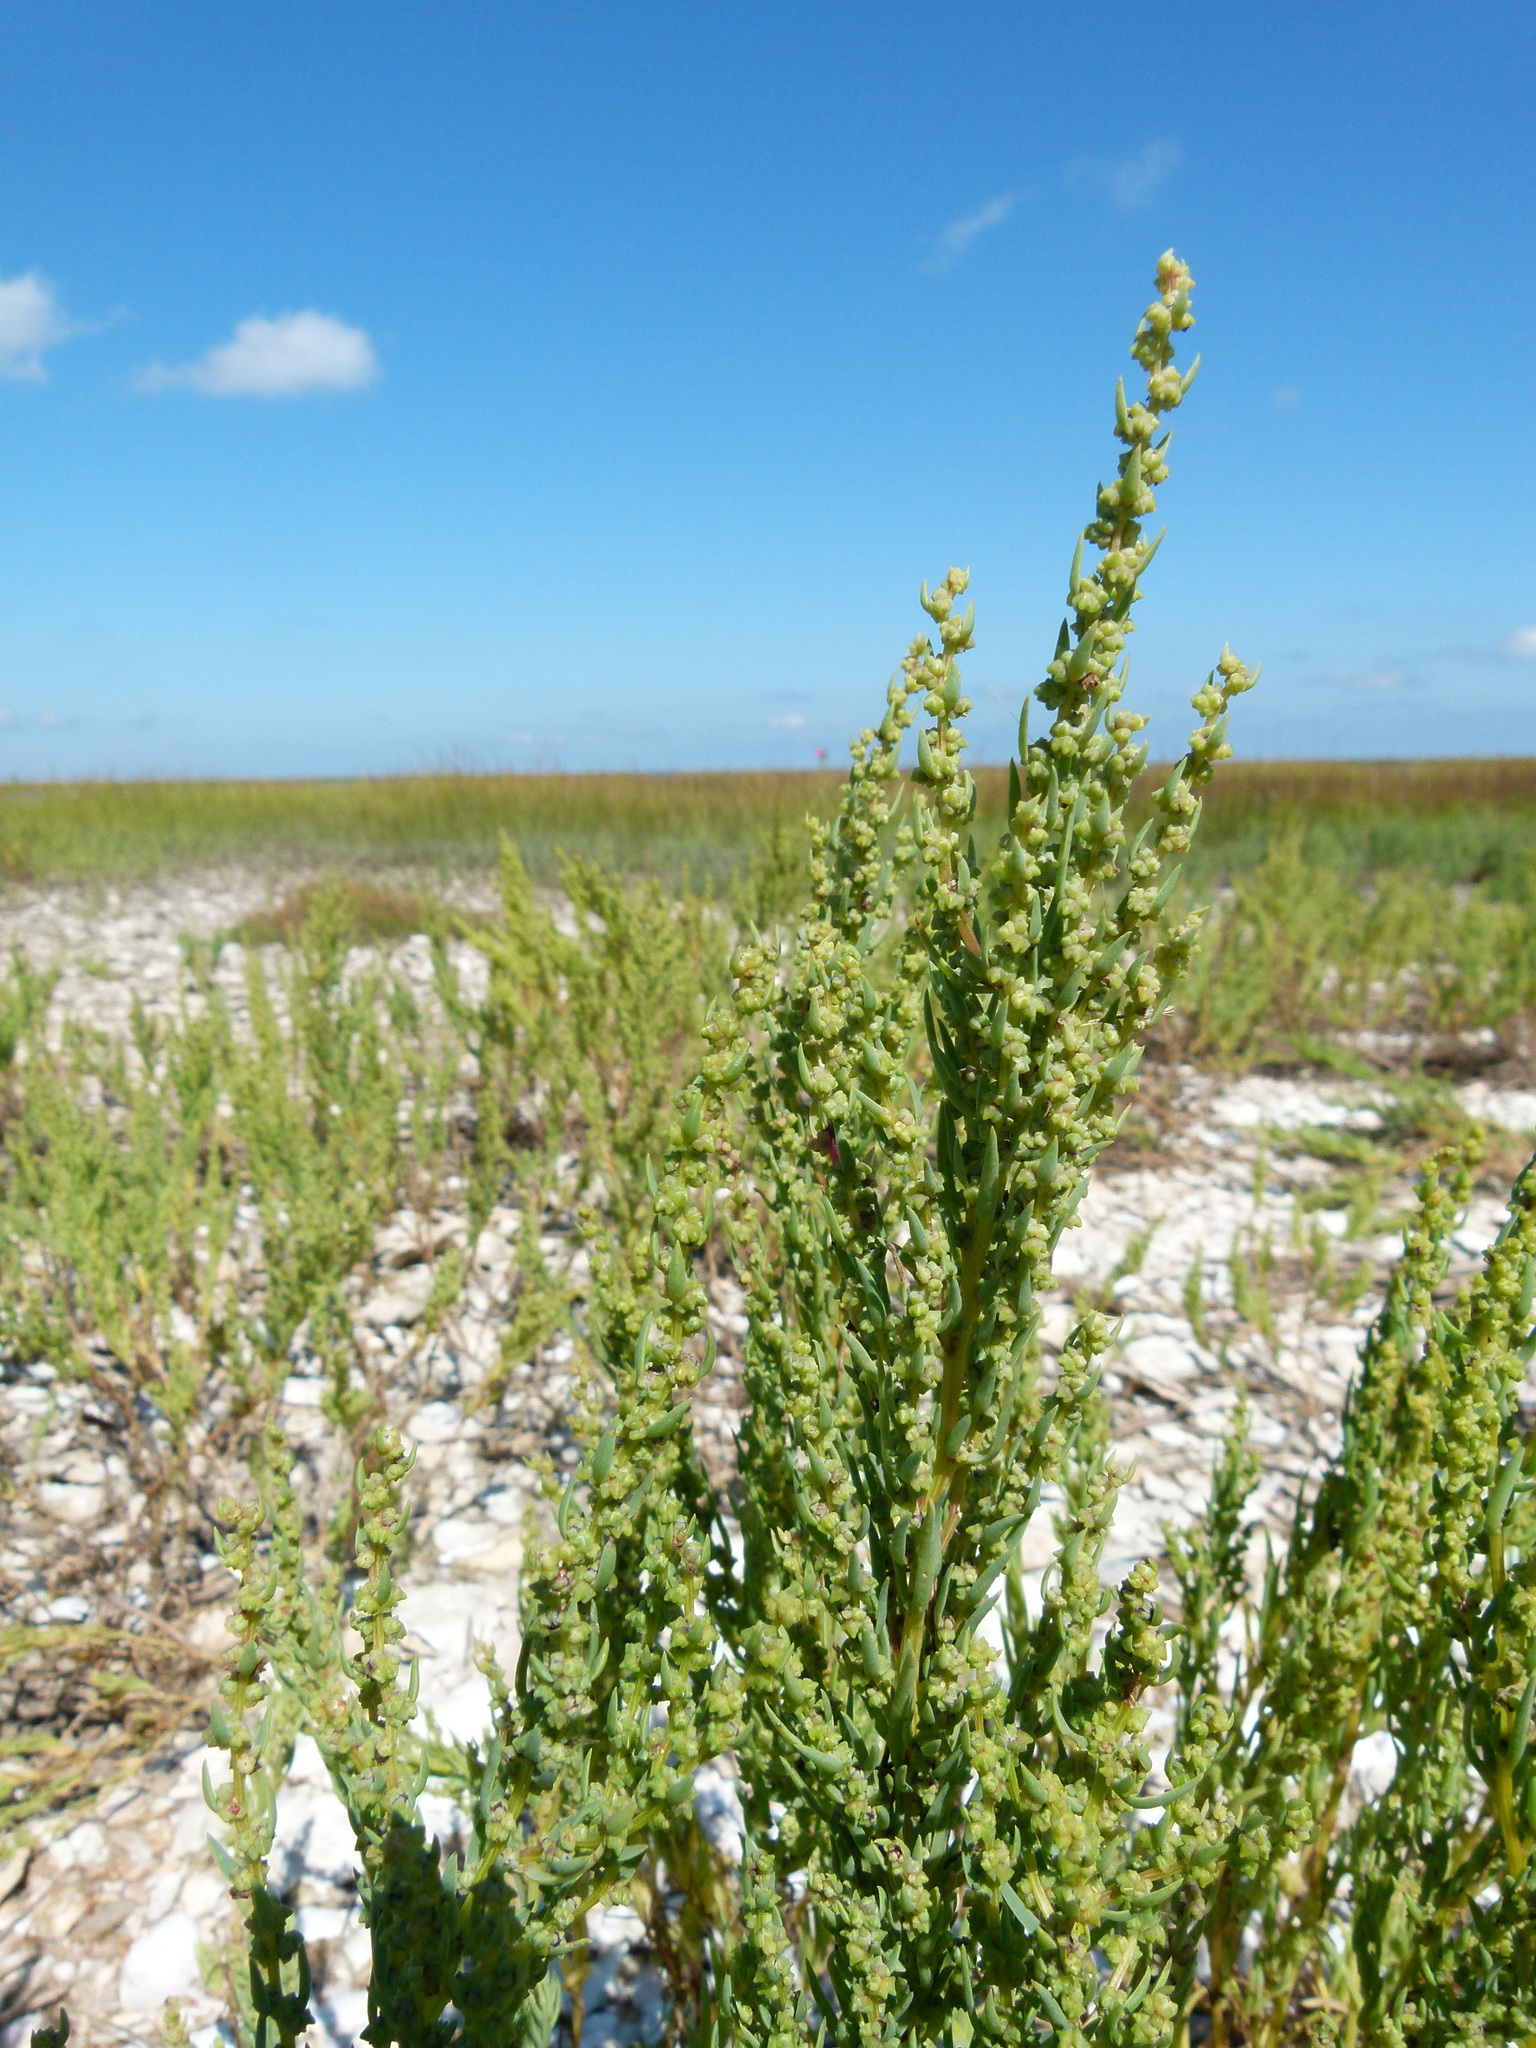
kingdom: Plantae
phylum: Tracheophyta
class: Magnoliopsida
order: Caryophyllales
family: Amaranthaceae
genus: Suaeda
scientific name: Suaeda linearis
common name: Annual seepweed
